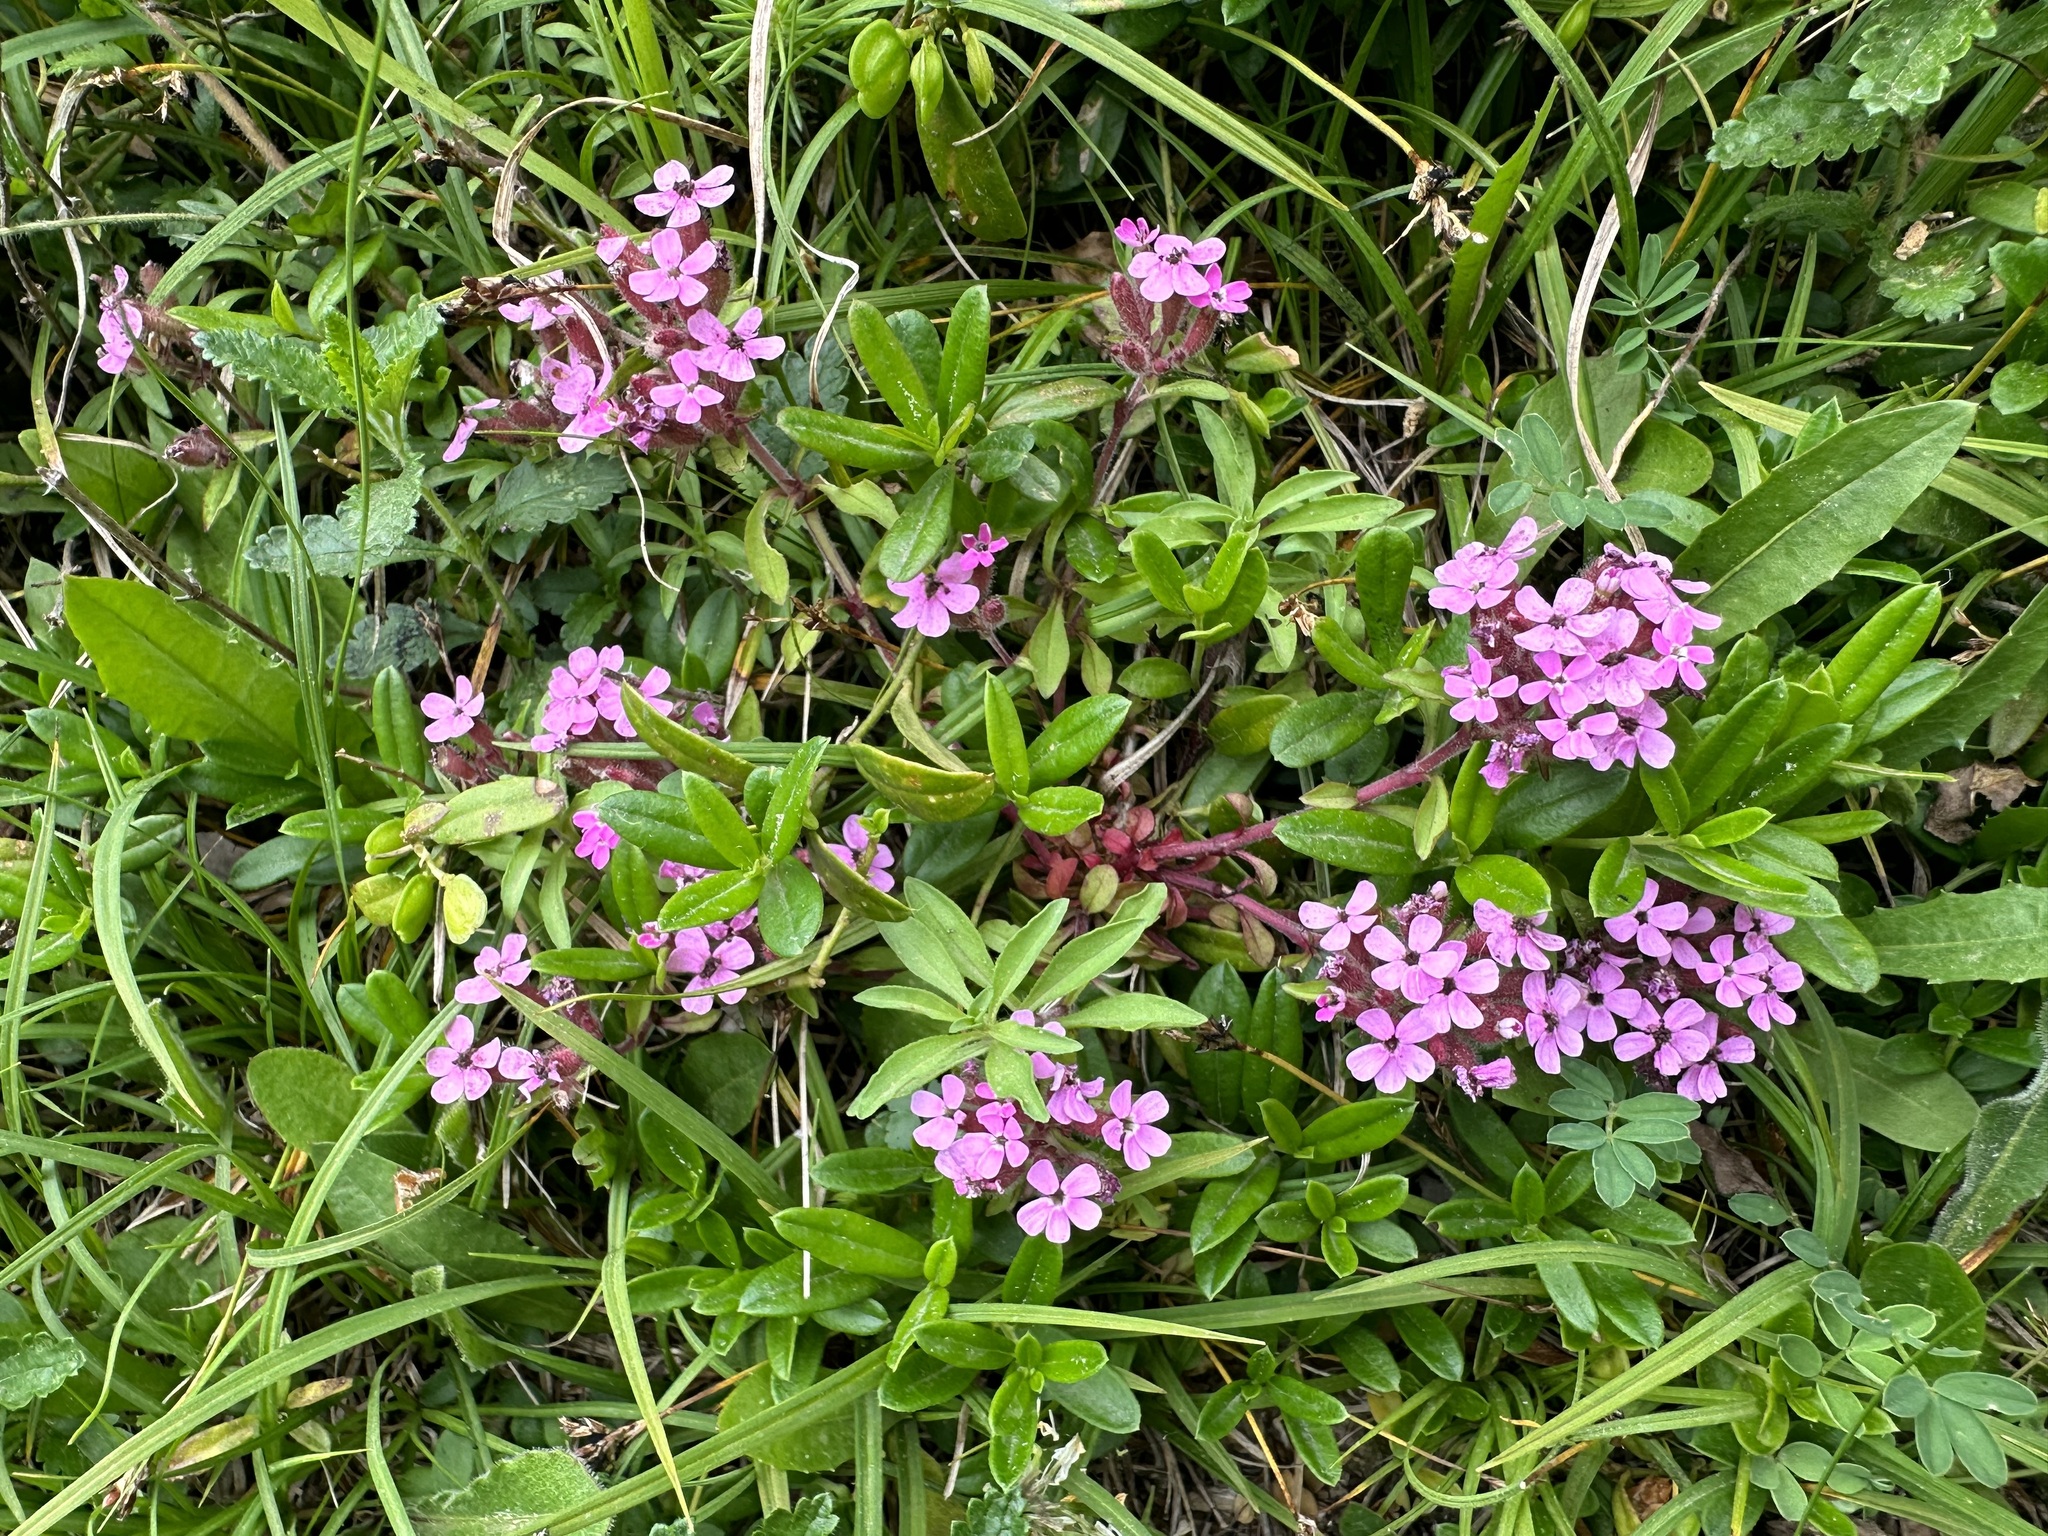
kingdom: Plantae
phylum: Tracheophyta
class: Magnoliopsida
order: Caryophyllales
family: Caryophyllaceae
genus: Saponaria
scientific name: Saponaria ocymoides
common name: Rock soapwort
